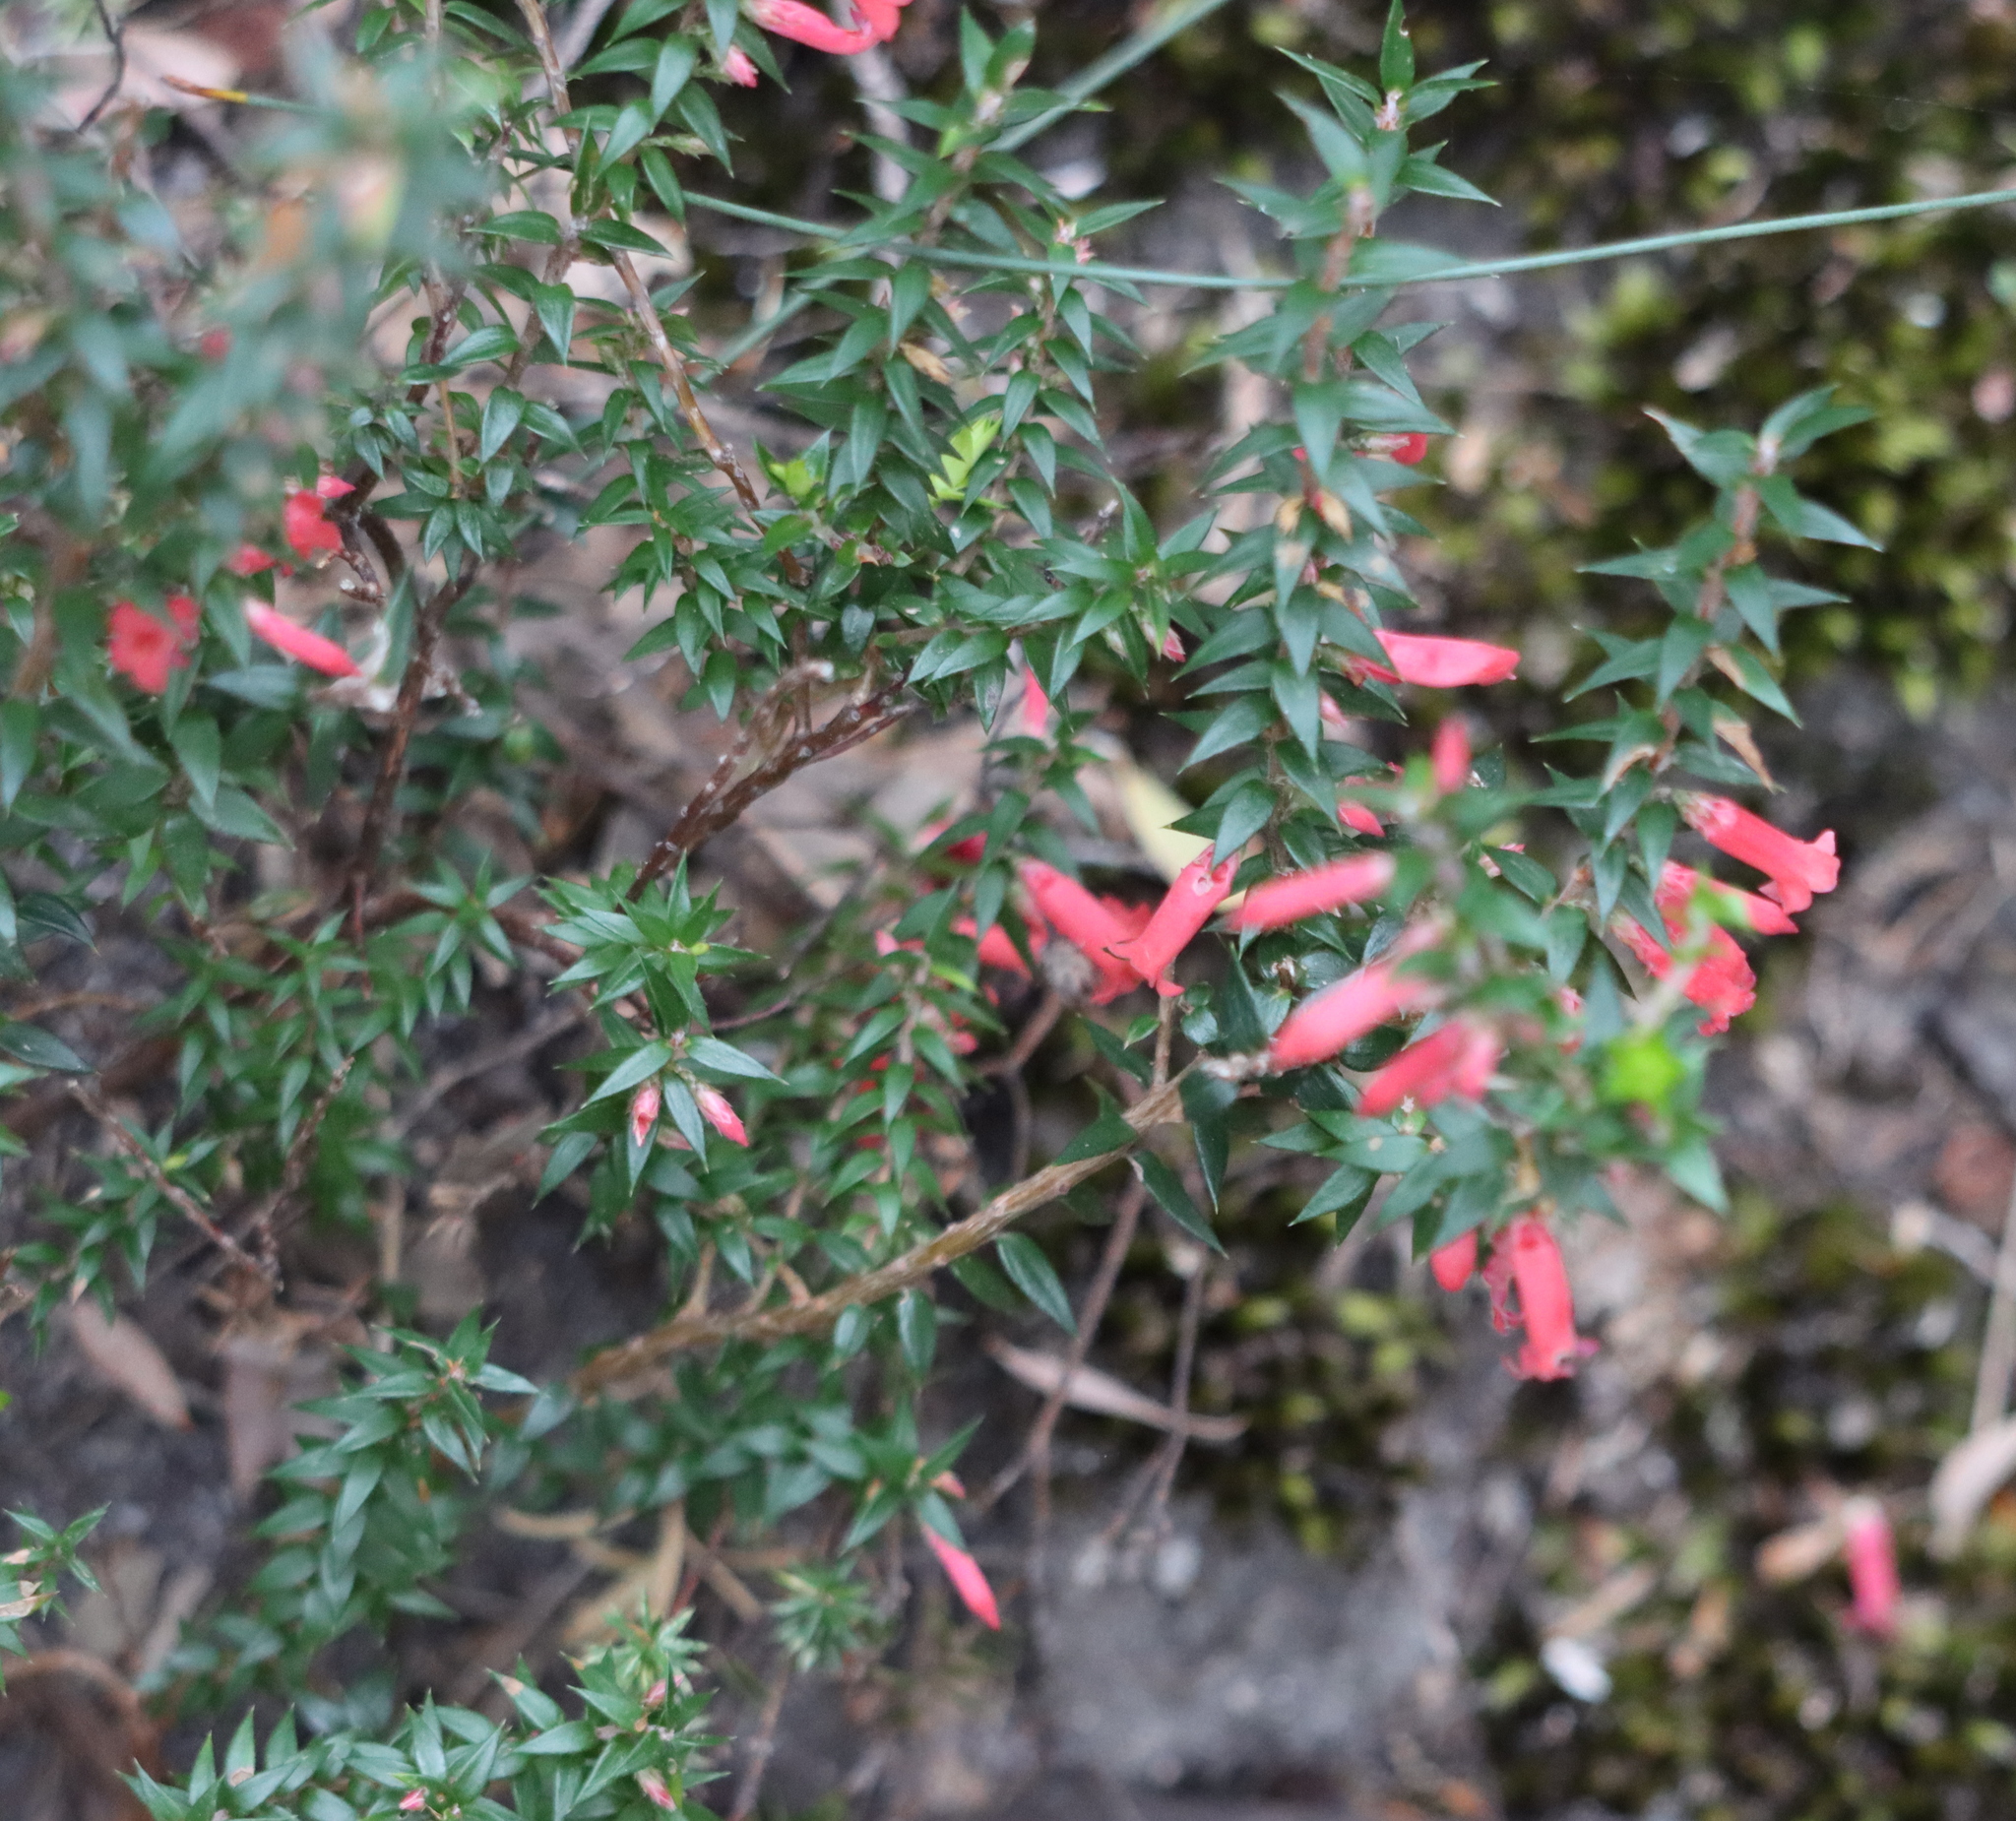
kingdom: Plantae
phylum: Tracheophyta
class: Magnoliopsida
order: Ericales
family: Ericaceae
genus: Epacris
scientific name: Epacris impressa
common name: Common-heath
